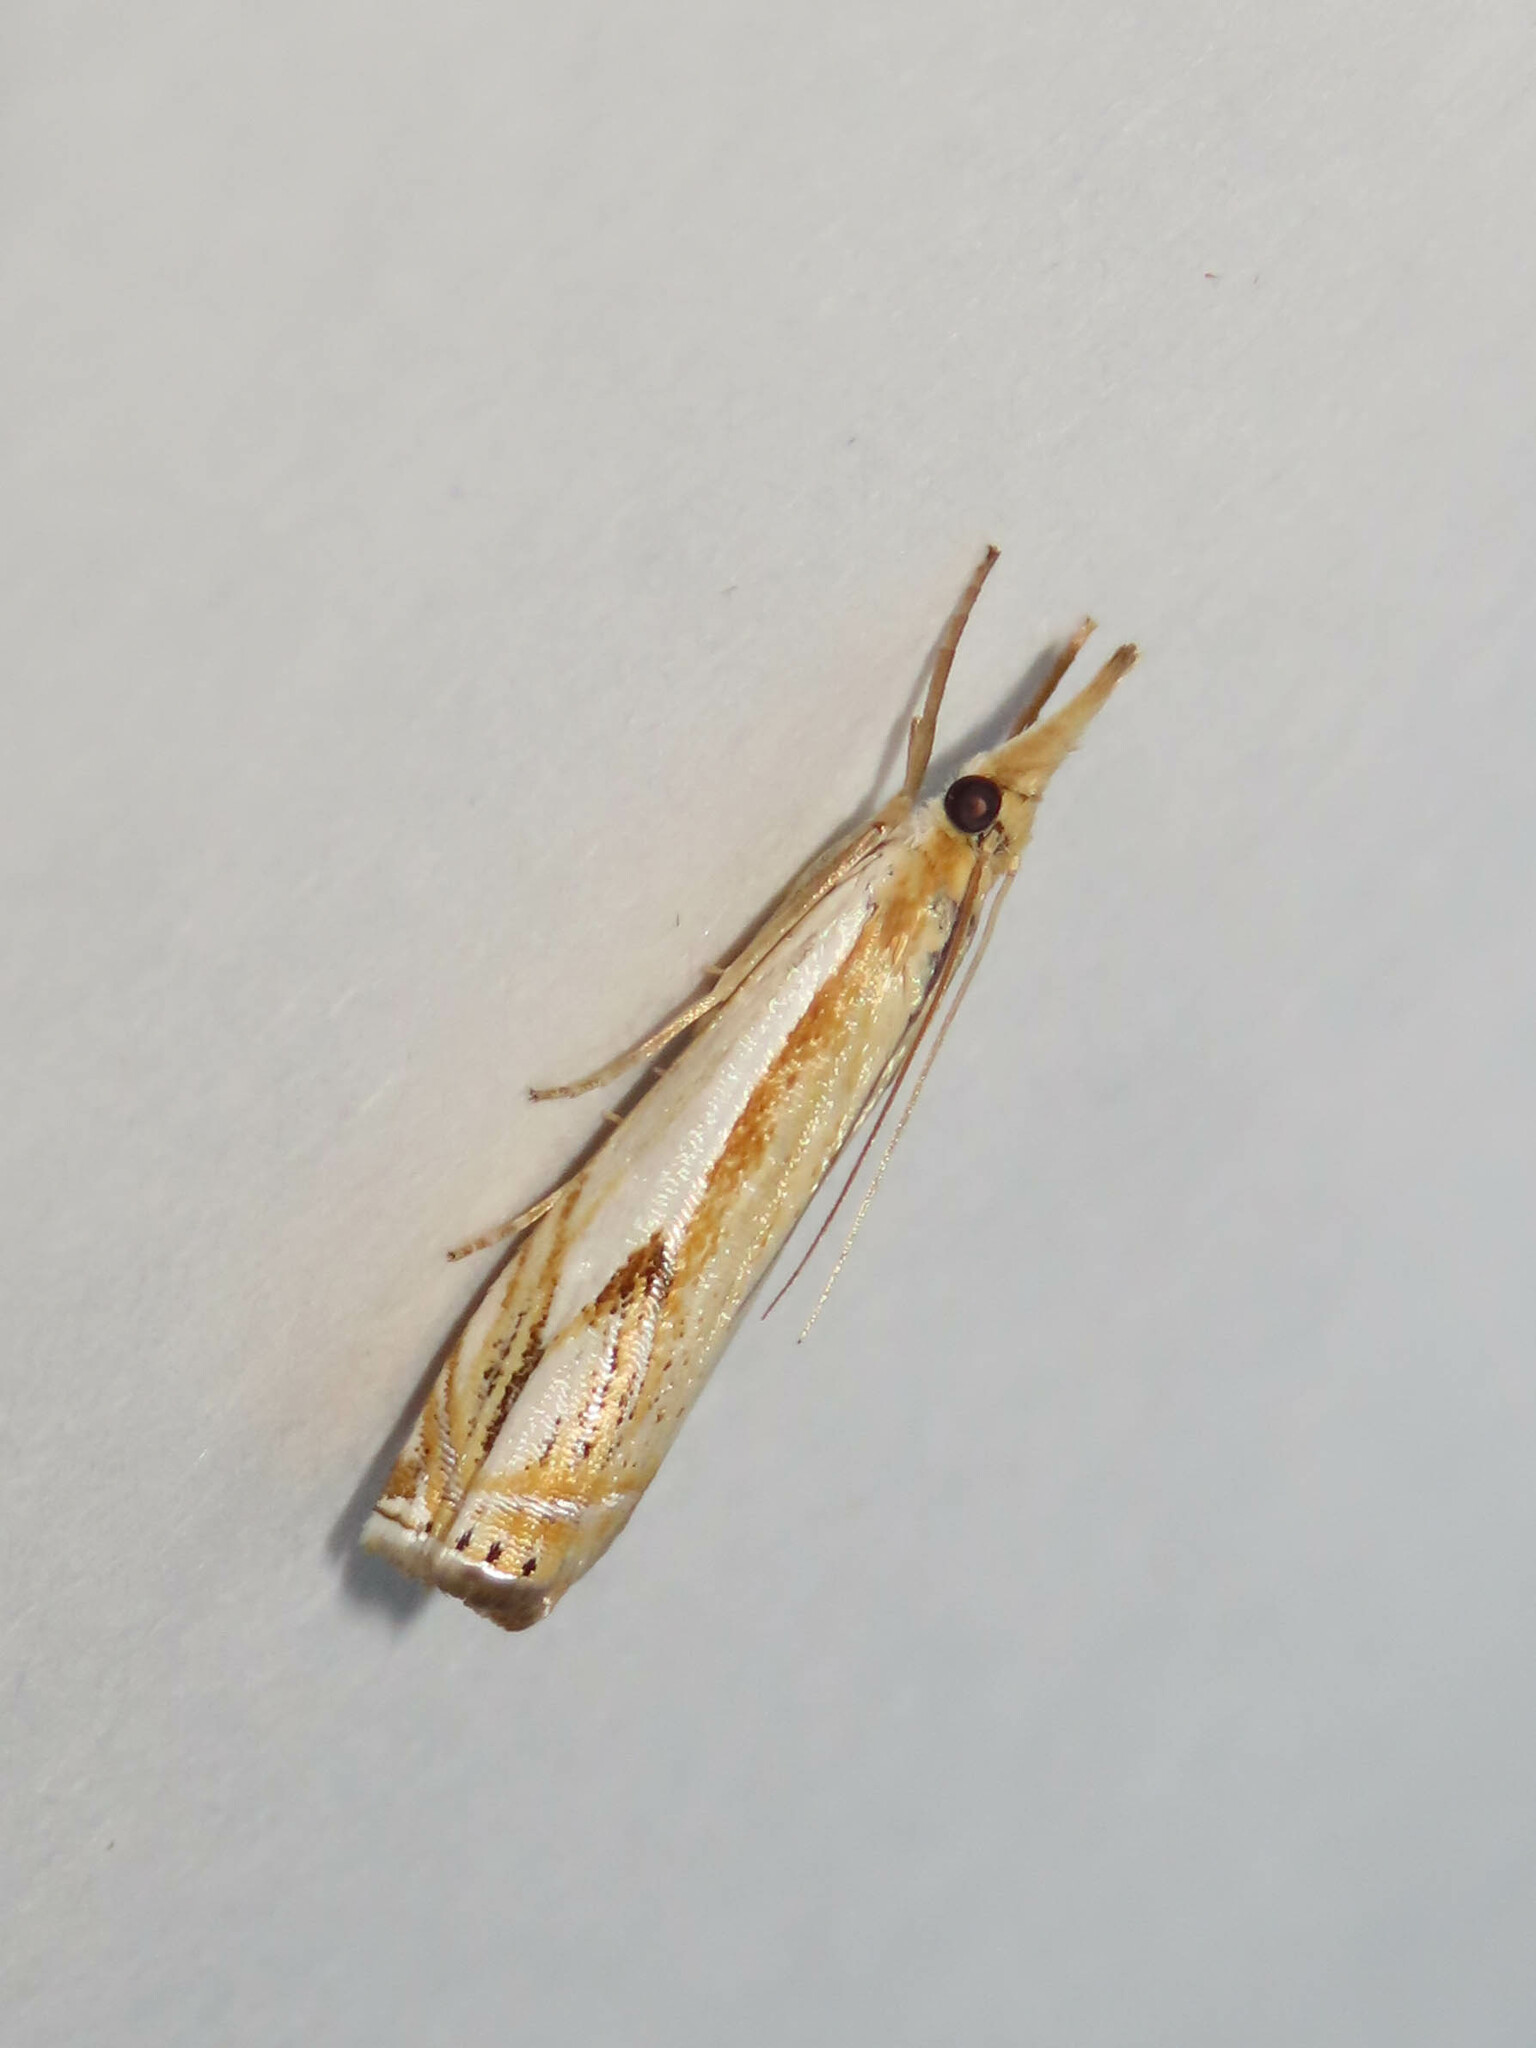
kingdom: Animalia
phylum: Arthropoda
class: Insecta
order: Lepidoptera
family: Crambidae
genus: Crambus
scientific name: Crambus agitatellus
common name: Double-banded grass-veneer
